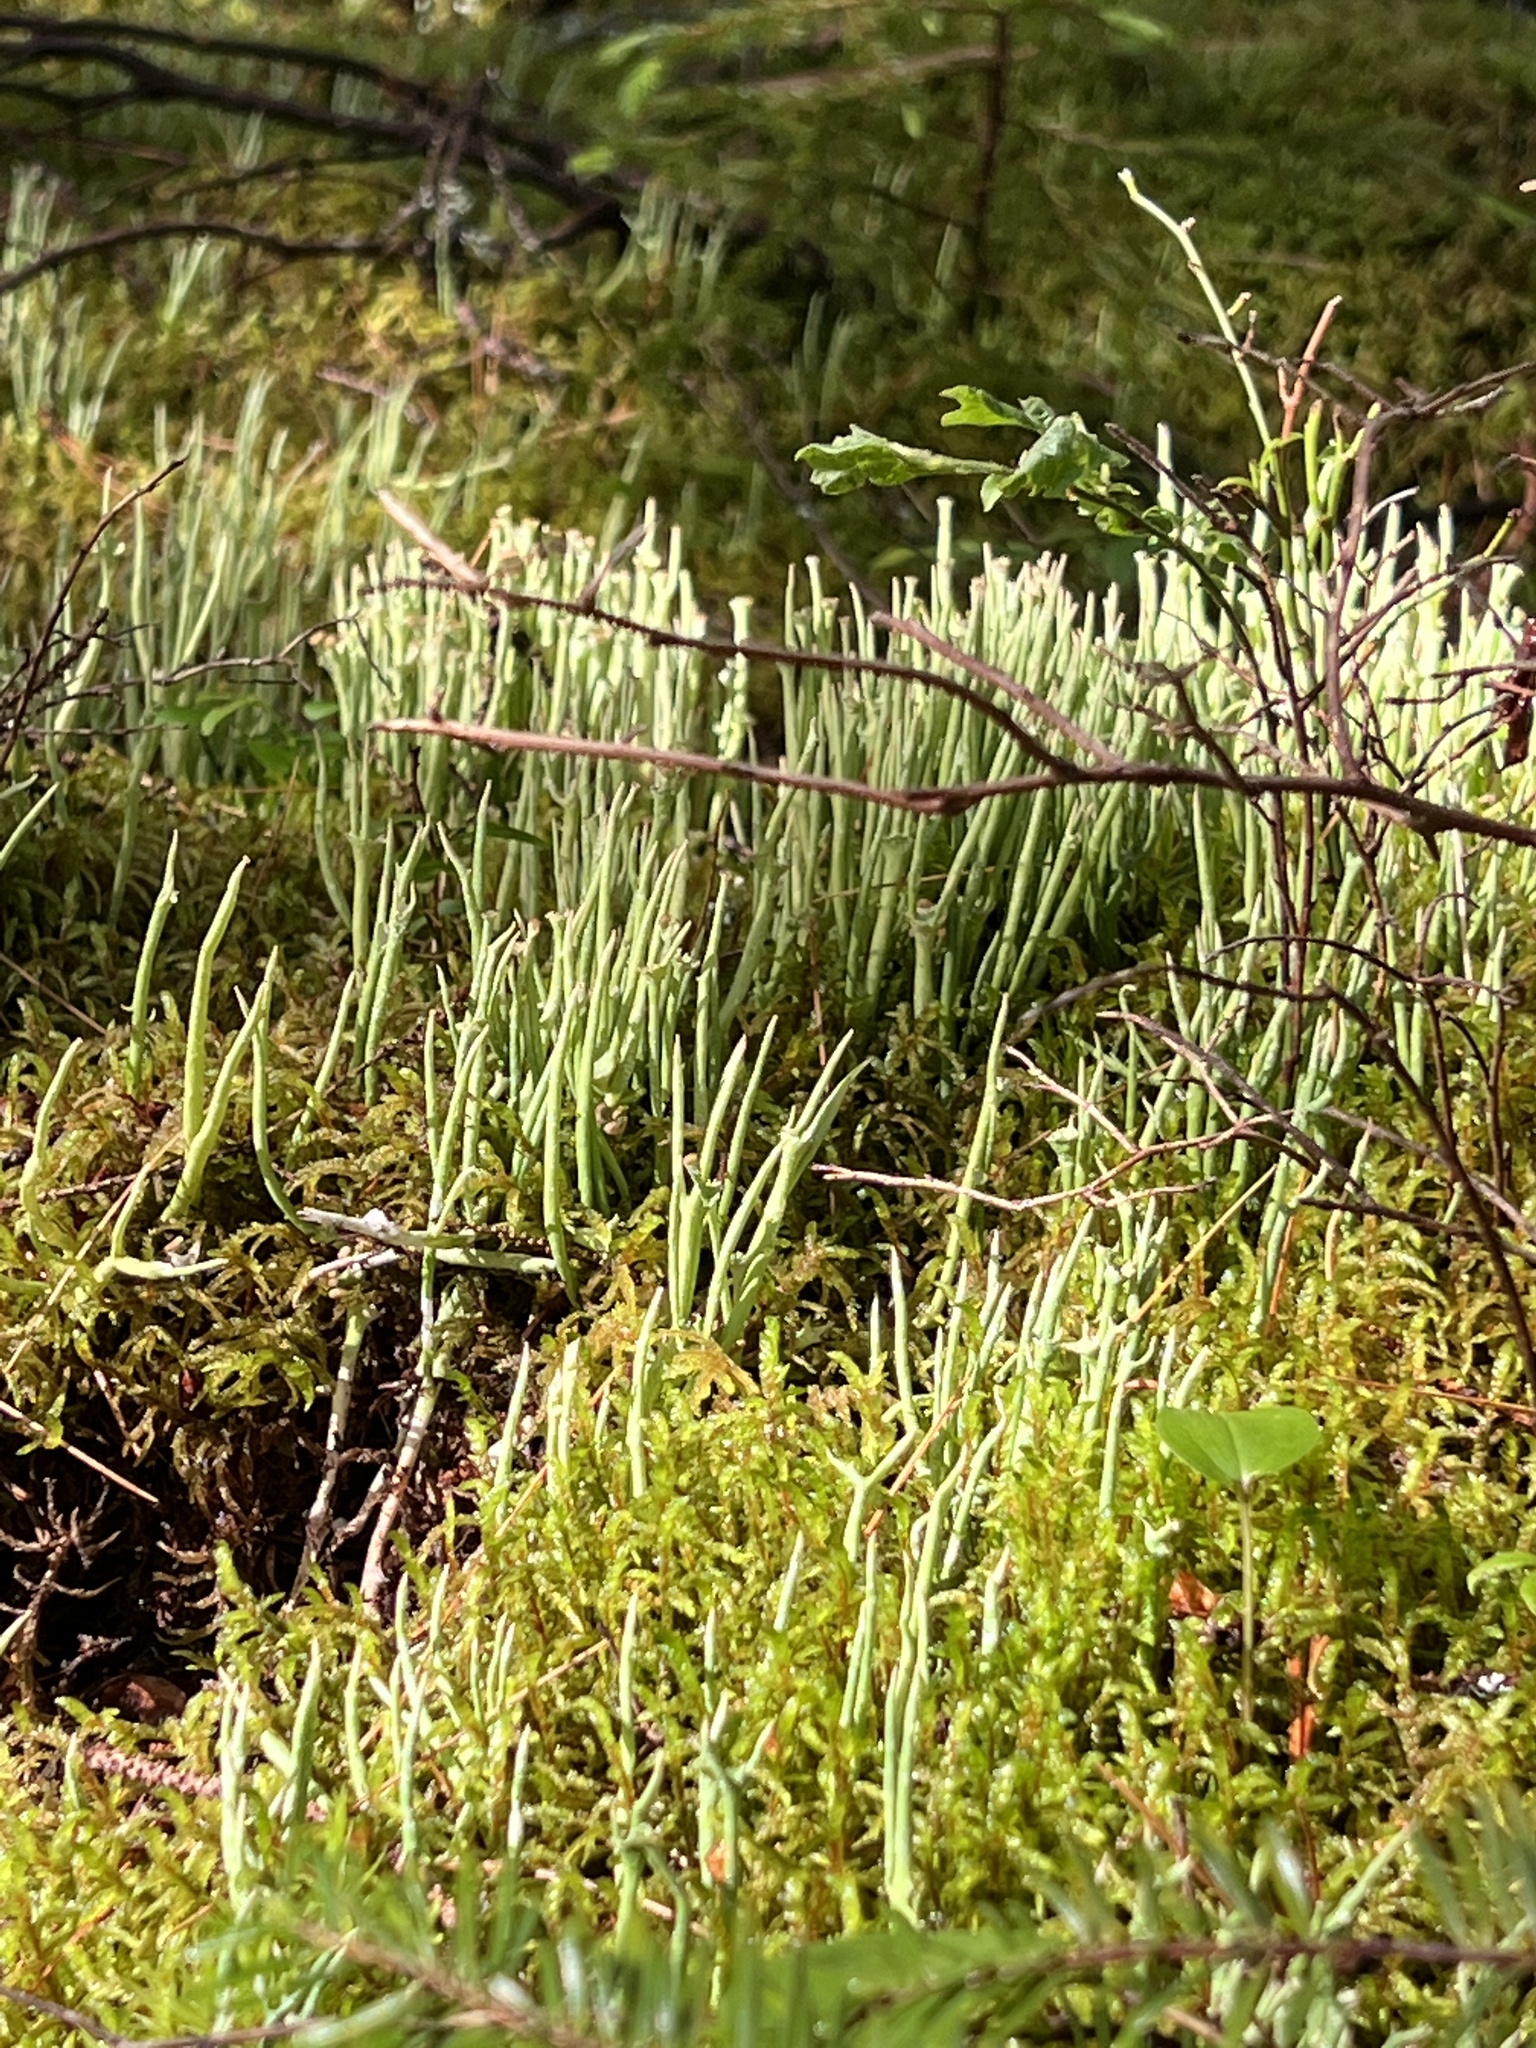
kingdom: Fungi
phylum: Ascomycota
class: Lecanoromycetes
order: Lecanorales
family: Cladoniaceae
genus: Cladonia
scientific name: Cladonia maxima
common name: Giant cladonia lichen
